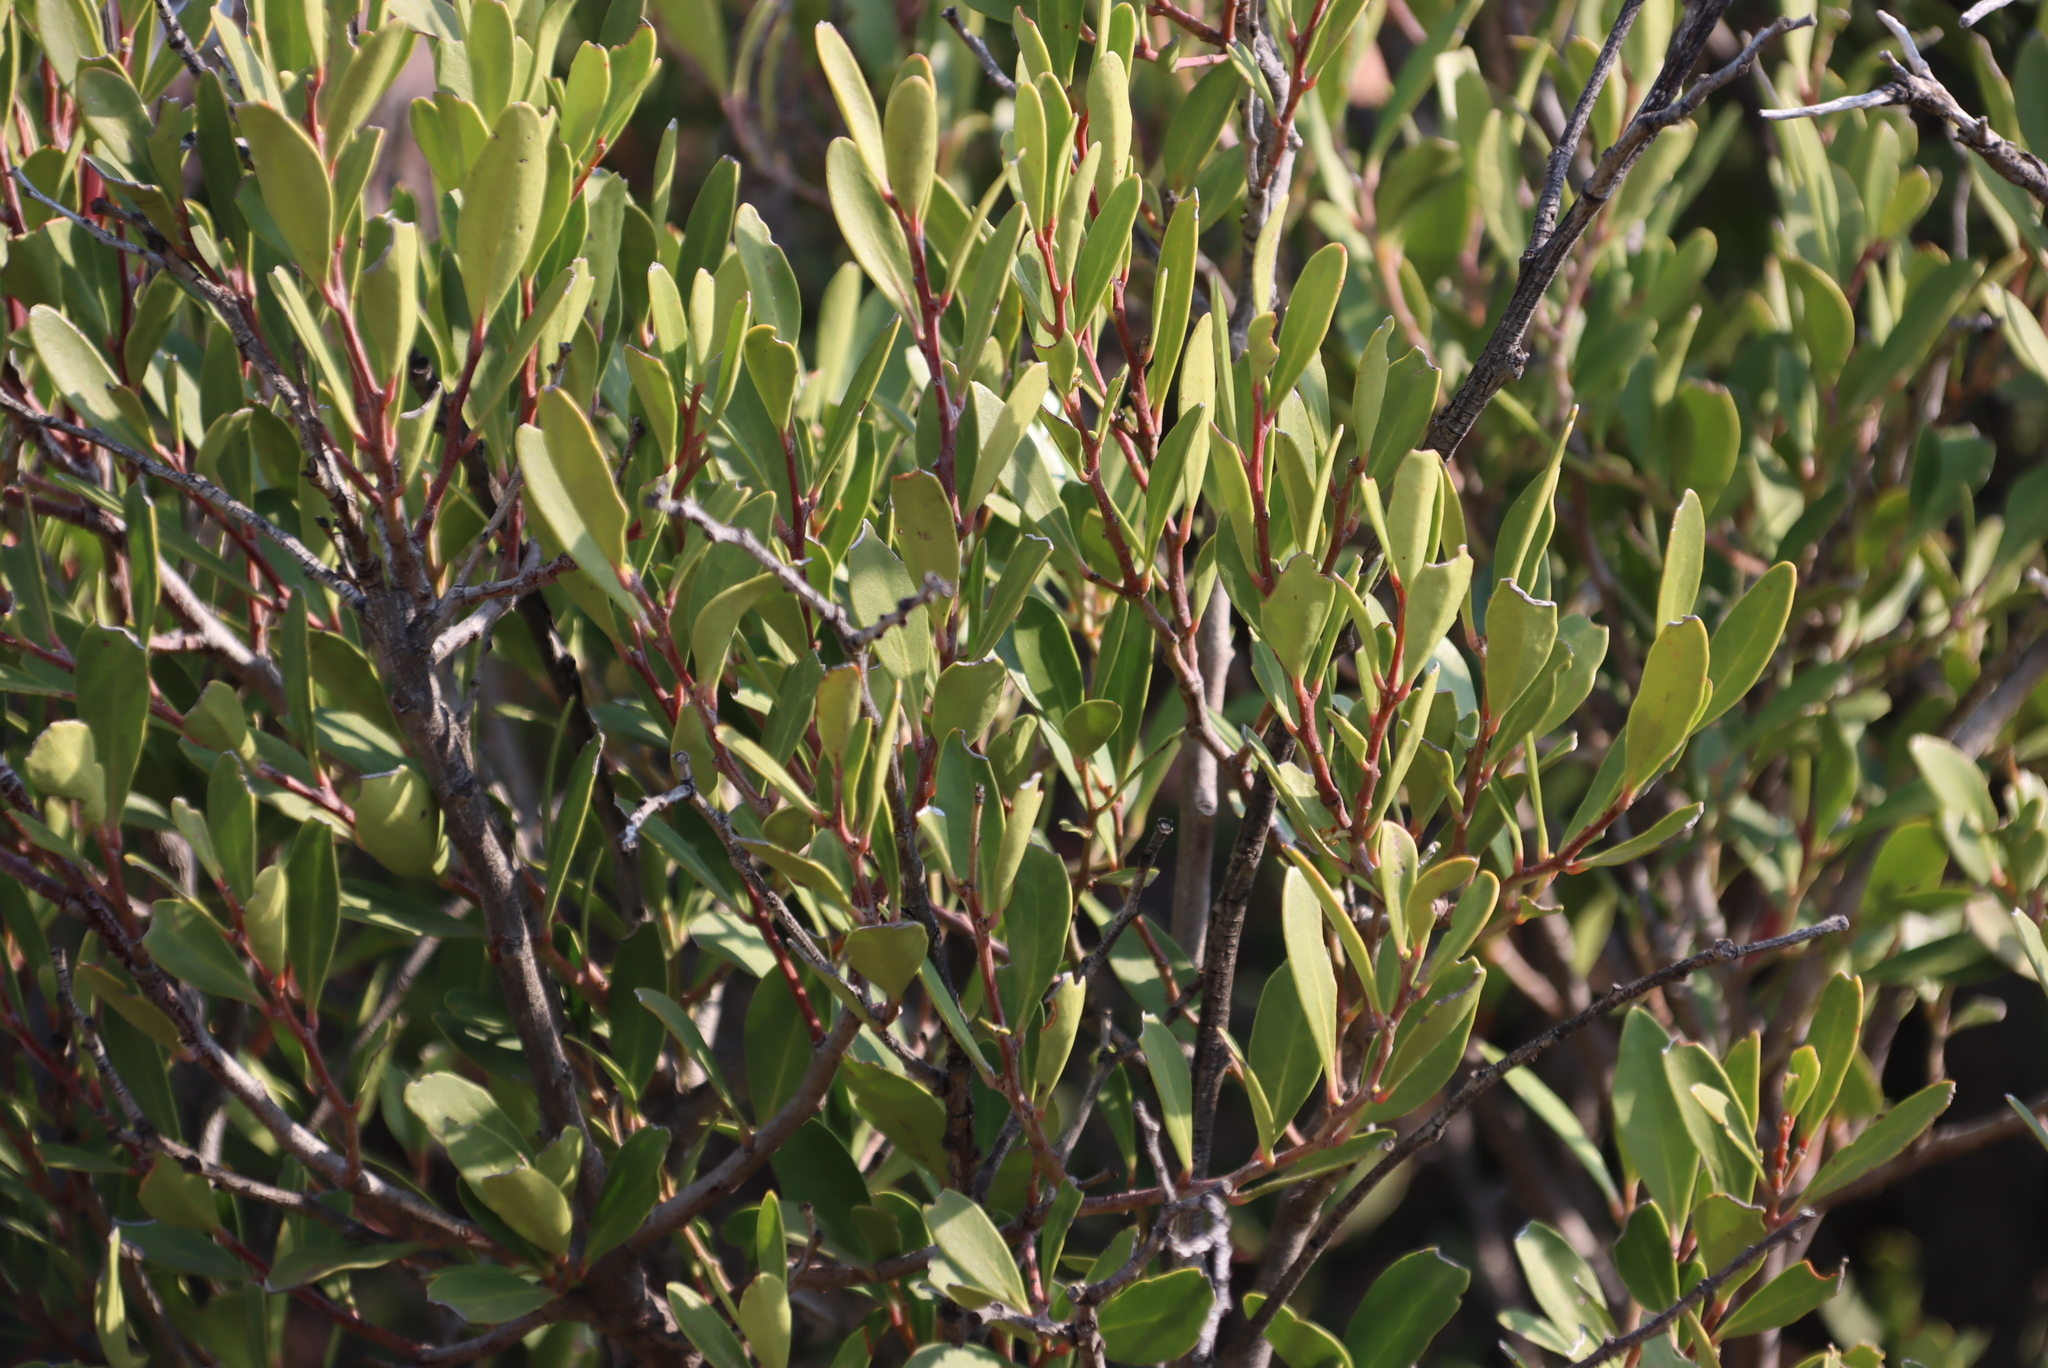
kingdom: Plantae
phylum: Tracheophyta
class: Magnoliopsida
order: Celastrales
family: Celastraceae
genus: Gymnosporia
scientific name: Gymnosporia laurina
